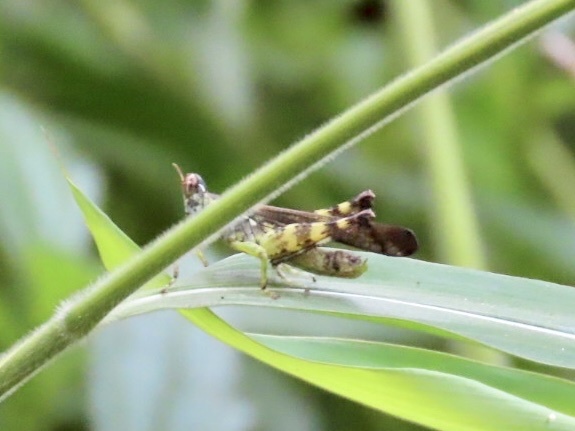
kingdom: Animalia
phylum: Arthropoda
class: Insecta
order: Orthoptera
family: Chorotypidae
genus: China
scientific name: China mantispoides
